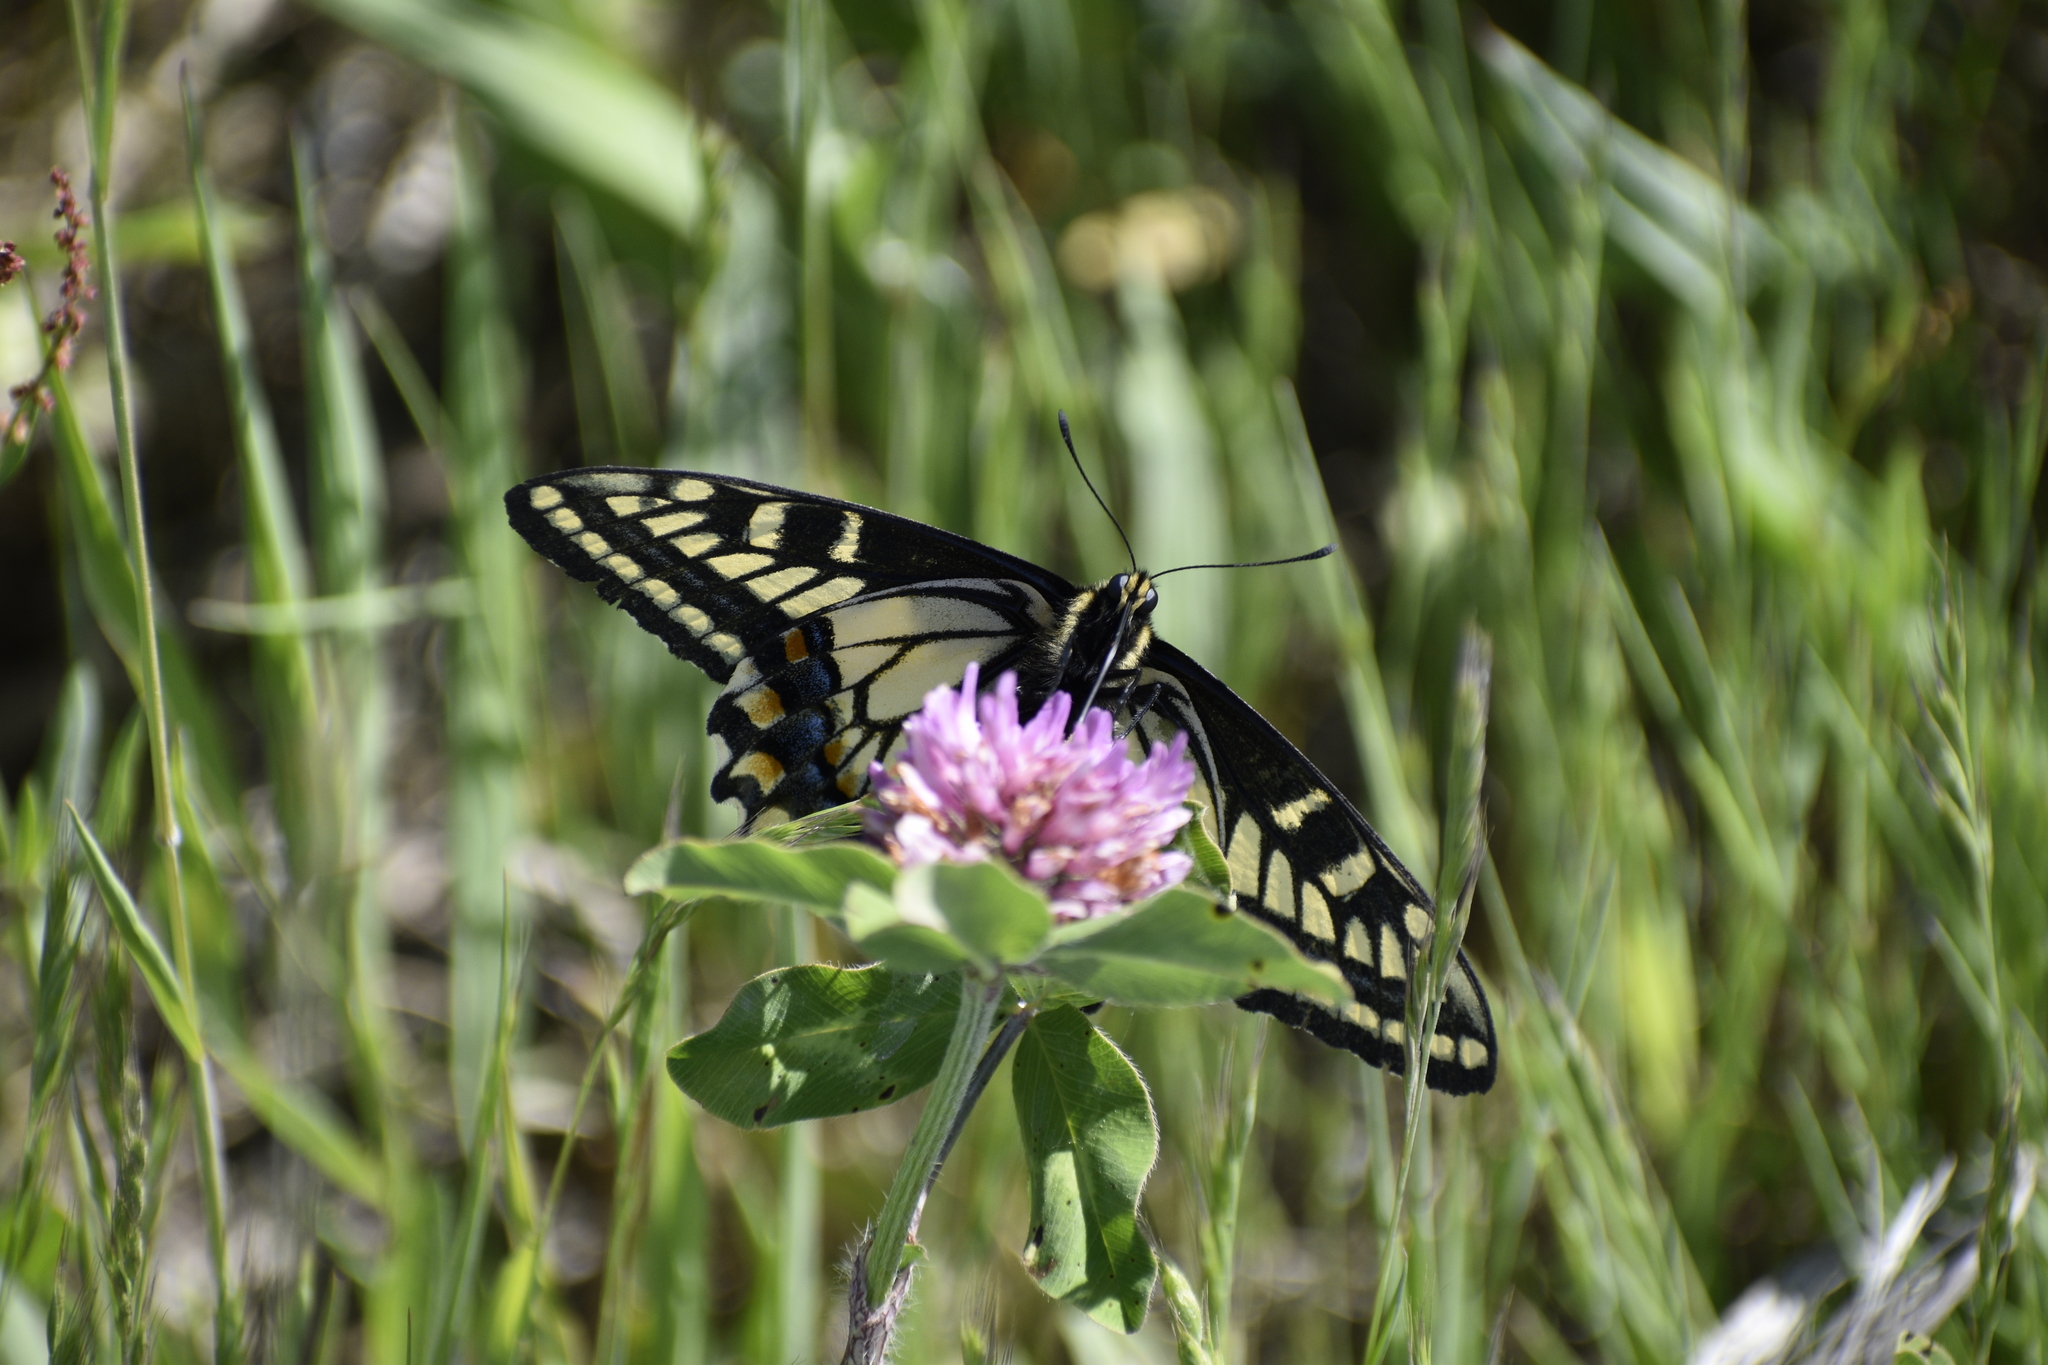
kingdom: Animalia
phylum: Arthropoda
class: Insecta
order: Lepidoptera
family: Papilionidae
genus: Papilio
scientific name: Papilio zelicaon
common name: Anise swallowtail
